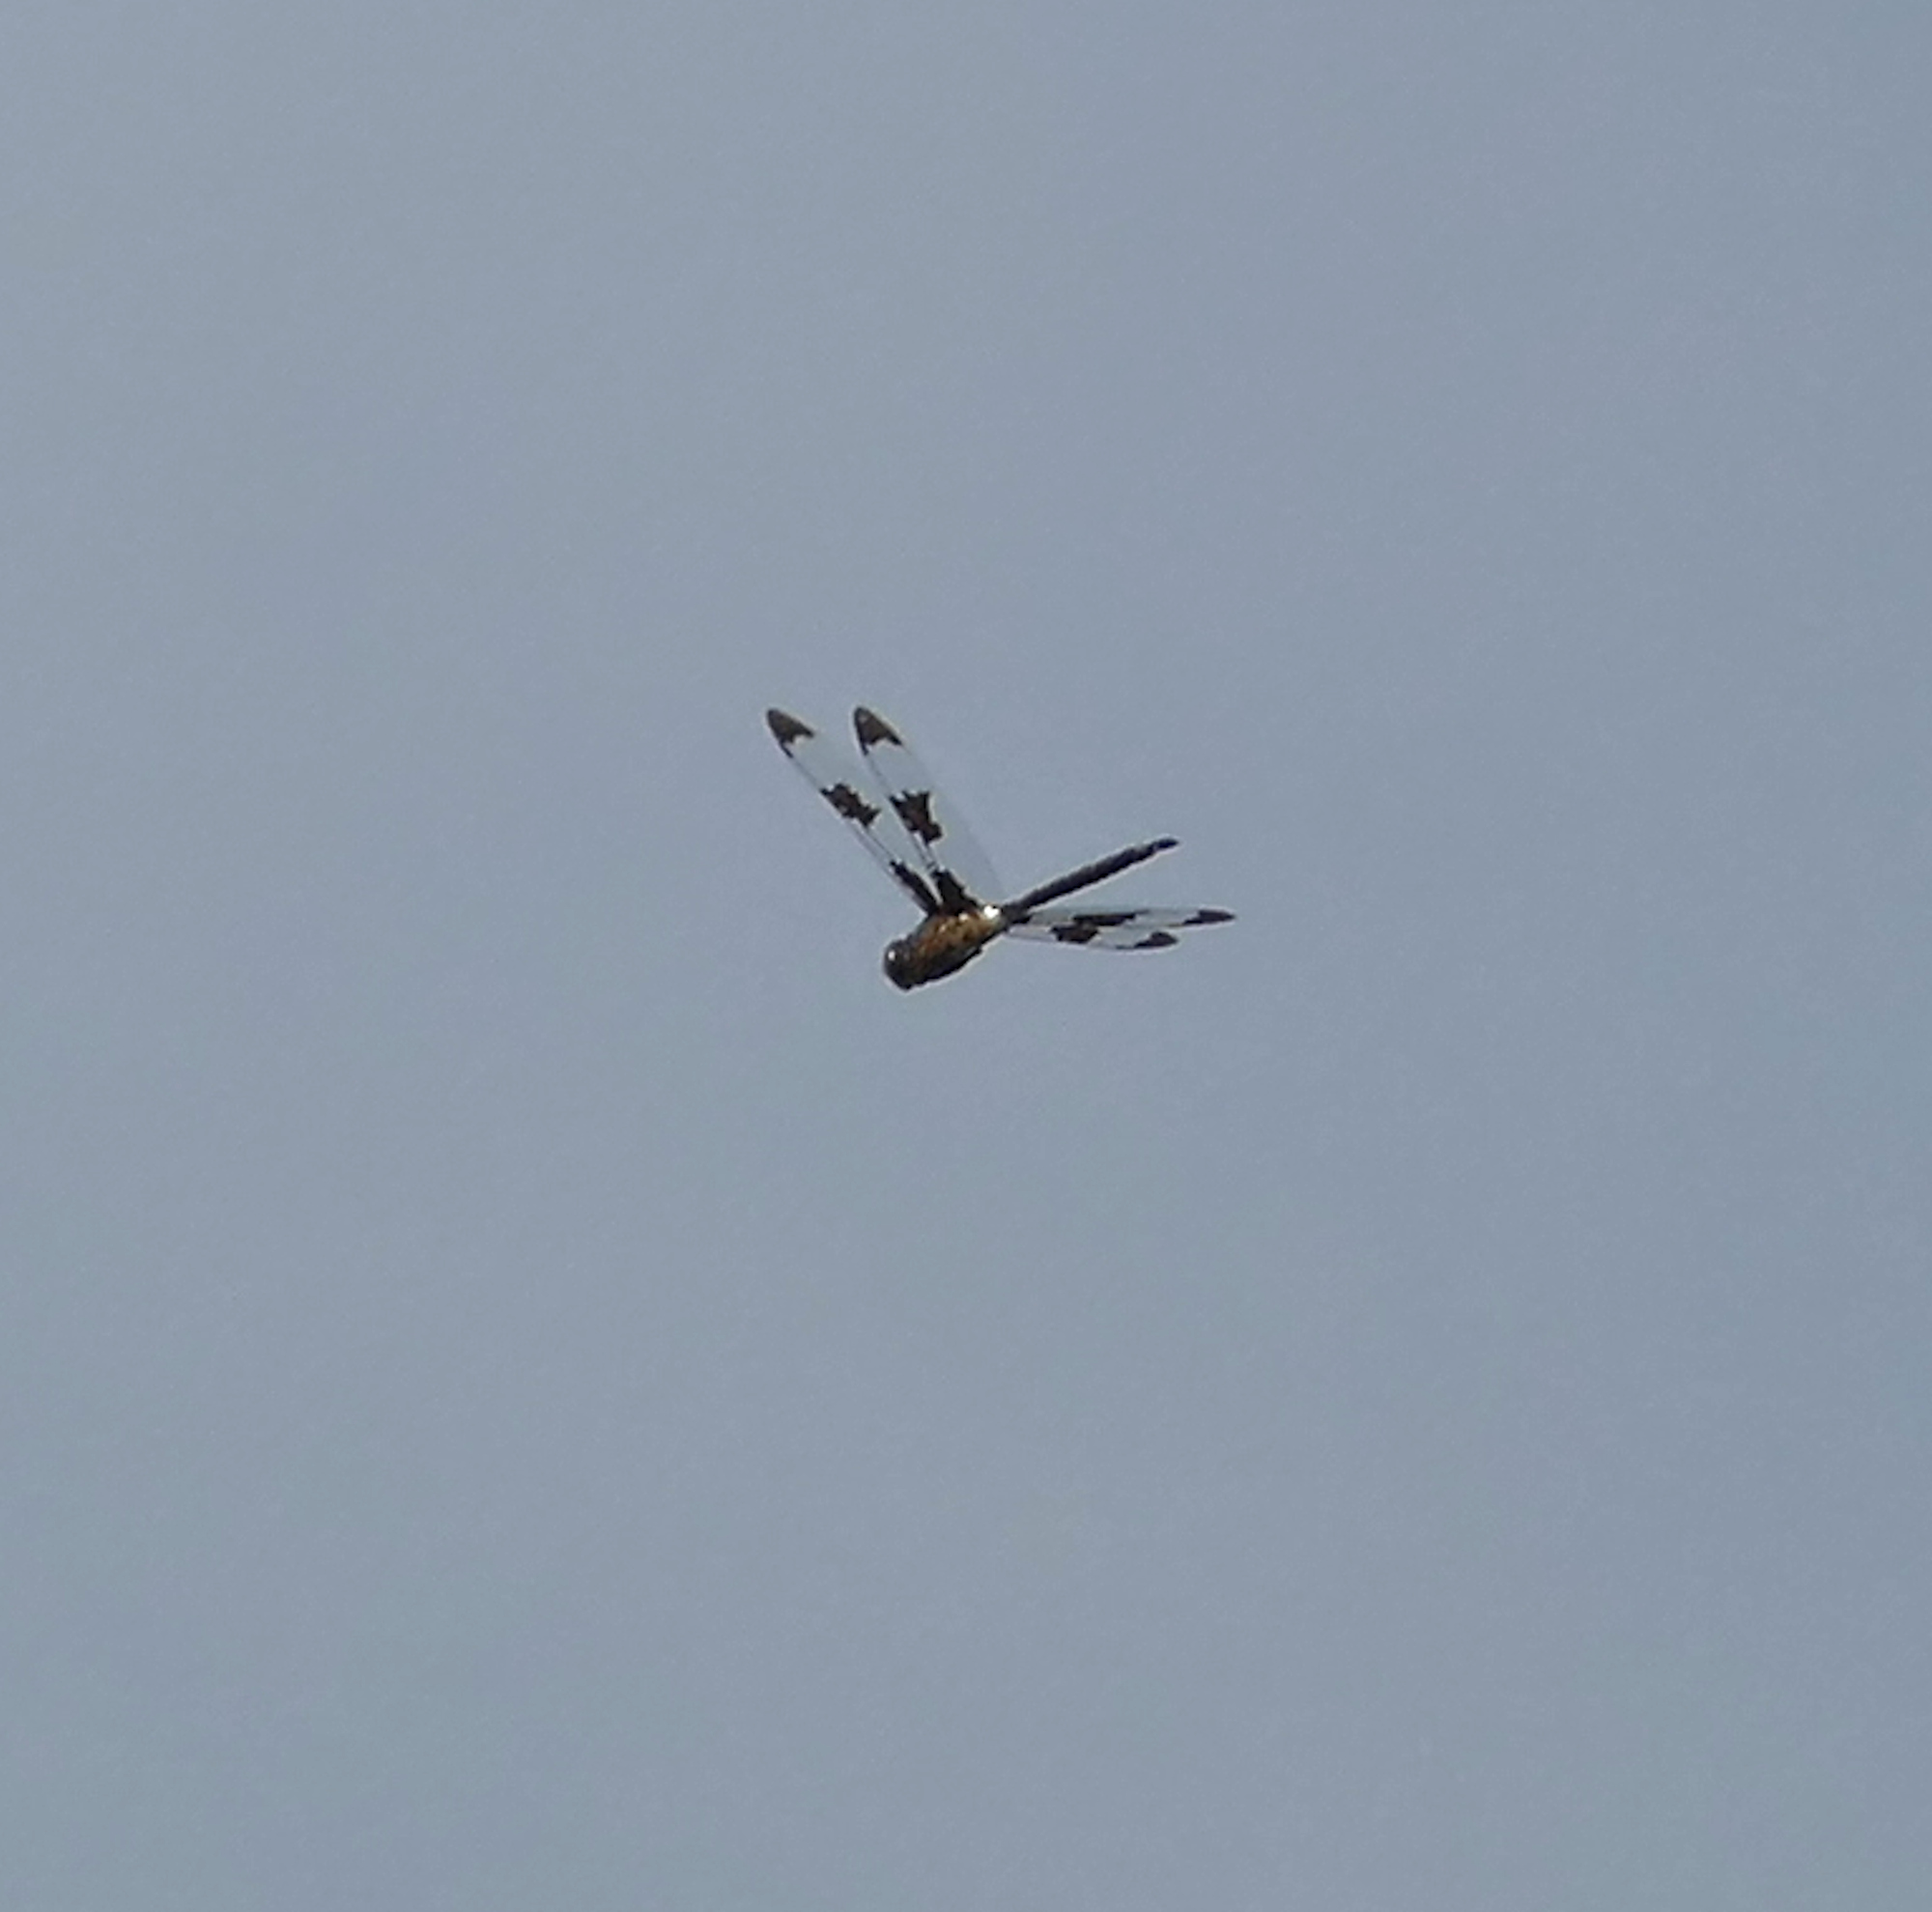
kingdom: Animalia
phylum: Arthropoda
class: Insecta
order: Odonata
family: Corduliidae
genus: Epitheca
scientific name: Epitheca princeps
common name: Prince baskettail
